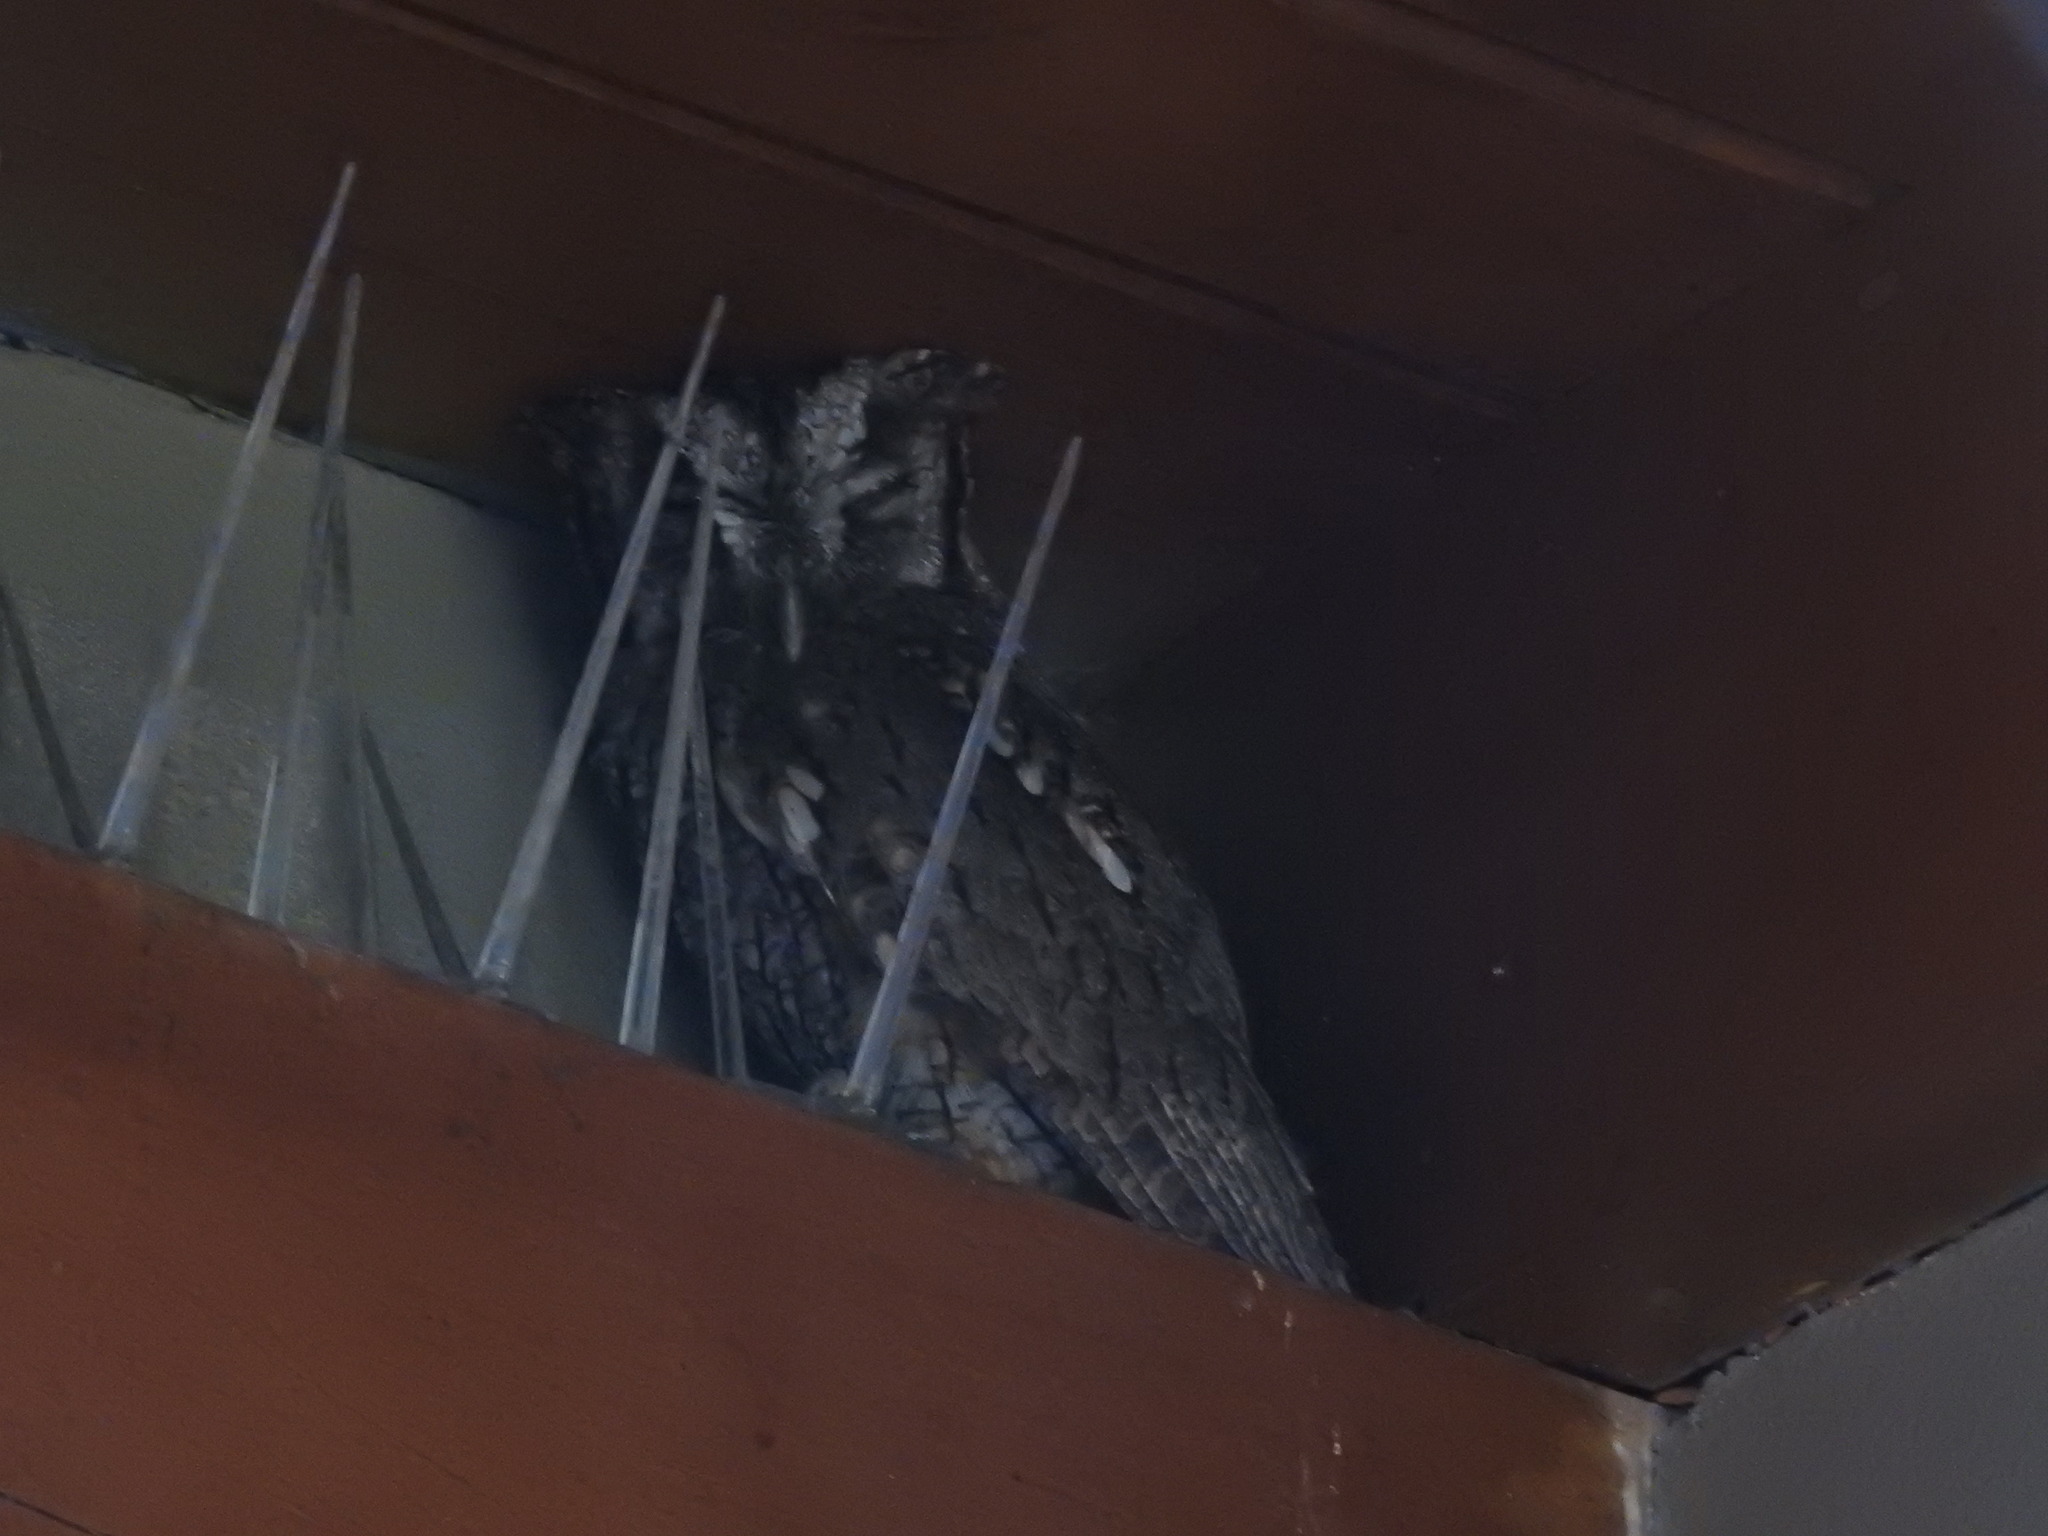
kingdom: Animalia
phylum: Chordata
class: Aves
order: Strigiformes
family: Strigidae
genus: Megascops
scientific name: Megascops choliba
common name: Tropical screech-owl
